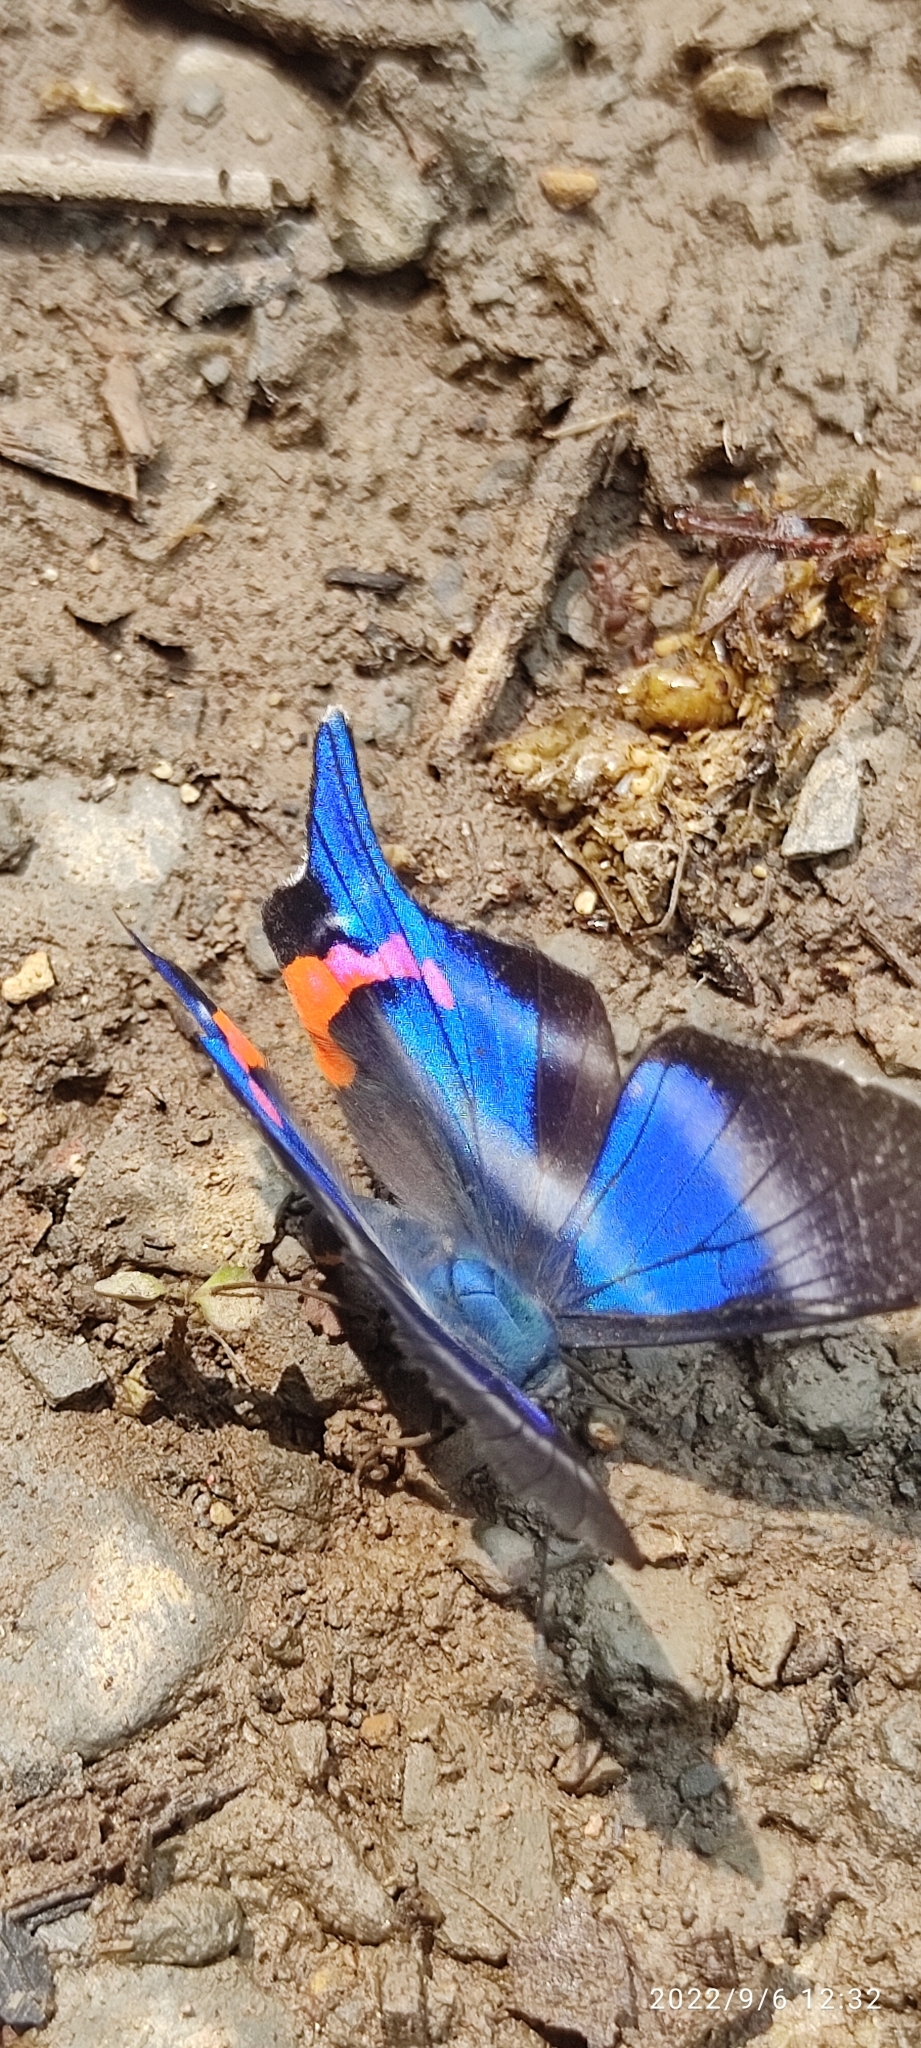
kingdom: Animalia
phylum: Arthropoda
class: Insecta
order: Lepidoptera
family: Riodinidae
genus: Rhetus
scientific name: Rhetus dysonii
